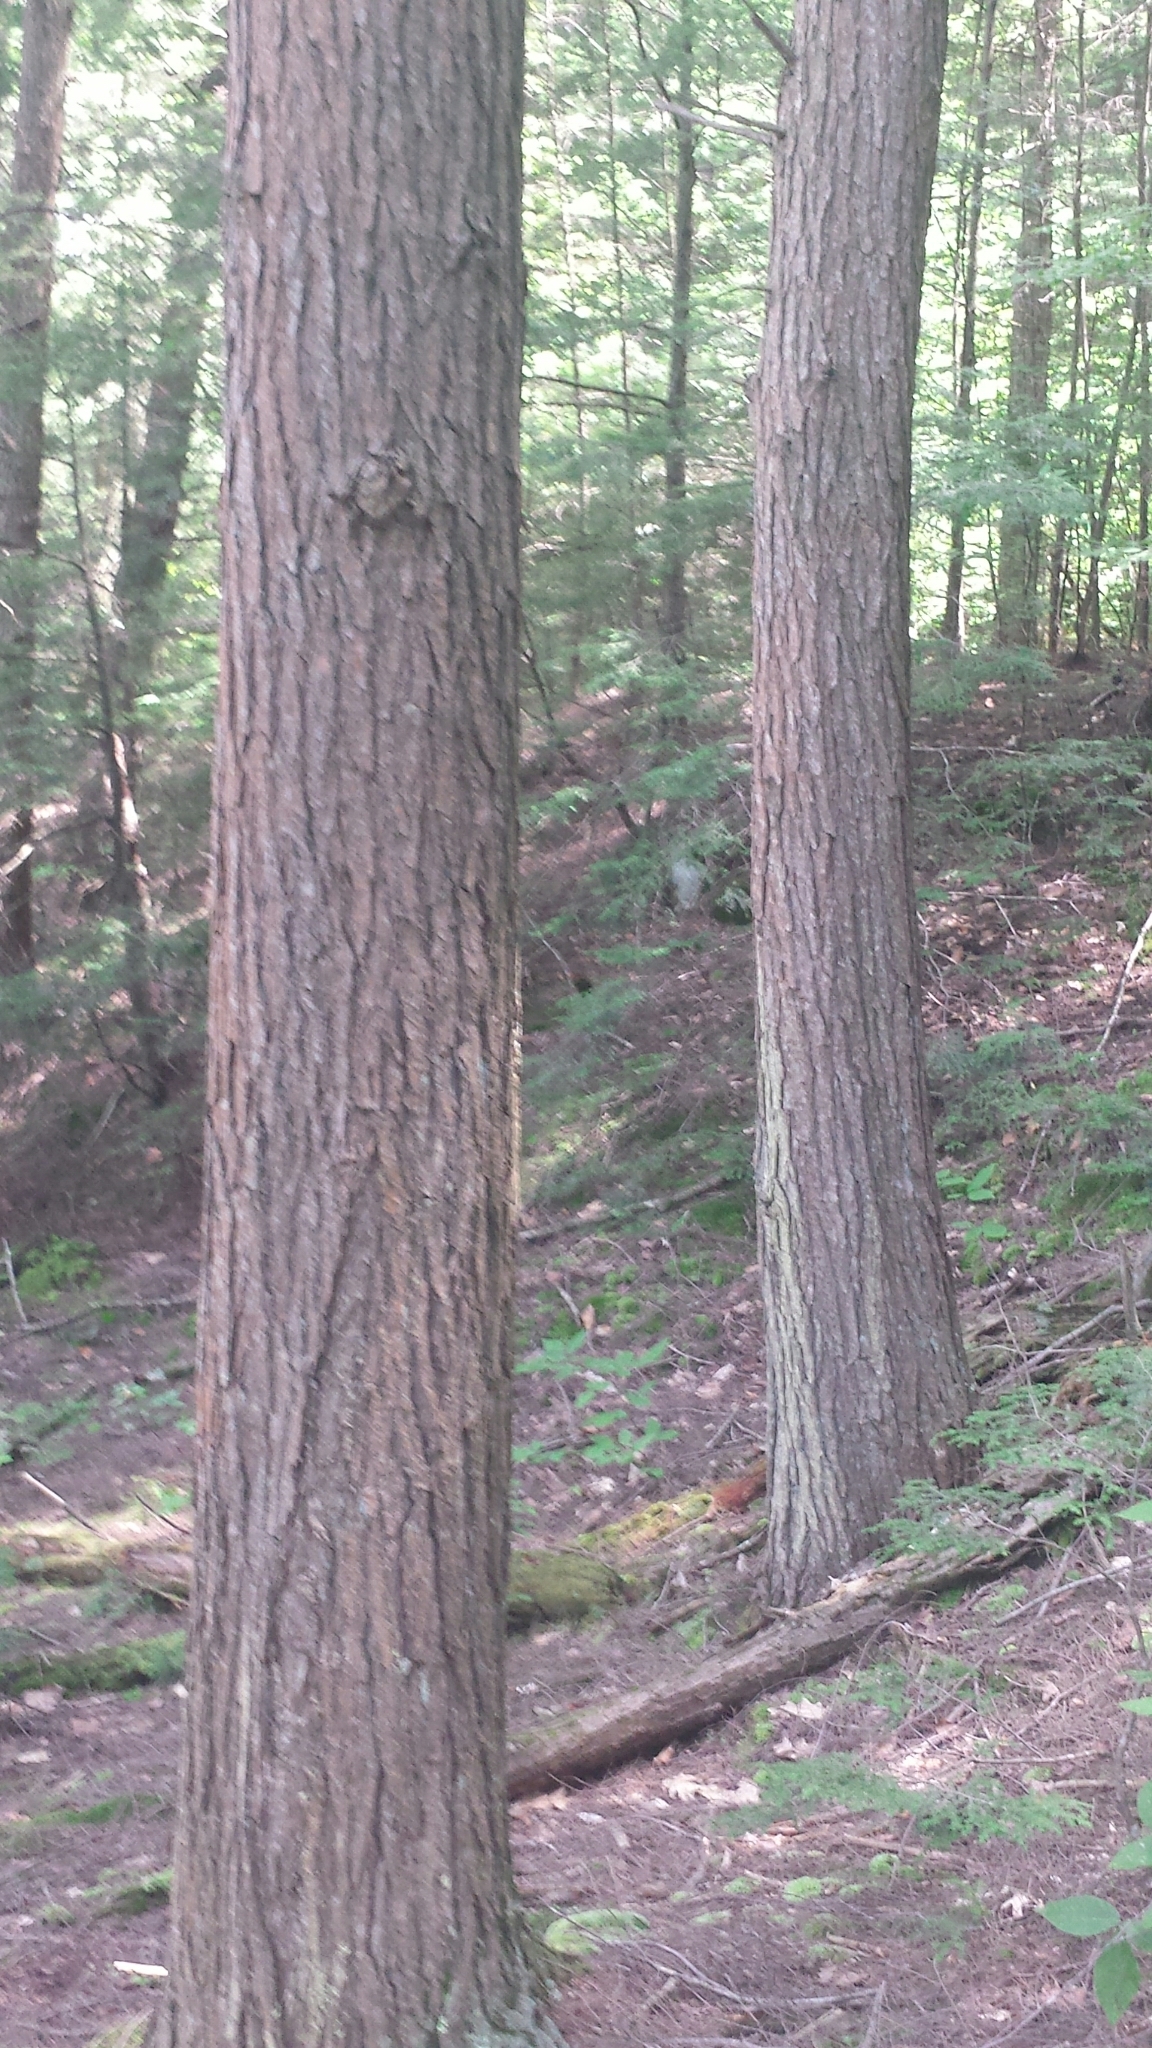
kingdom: Plantae
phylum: Tracheophyta
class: Pinopsida
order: Pinales
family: Pinaceae
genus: Tsuga
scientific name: Tsuga canadensis
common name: Eastern hemlock
